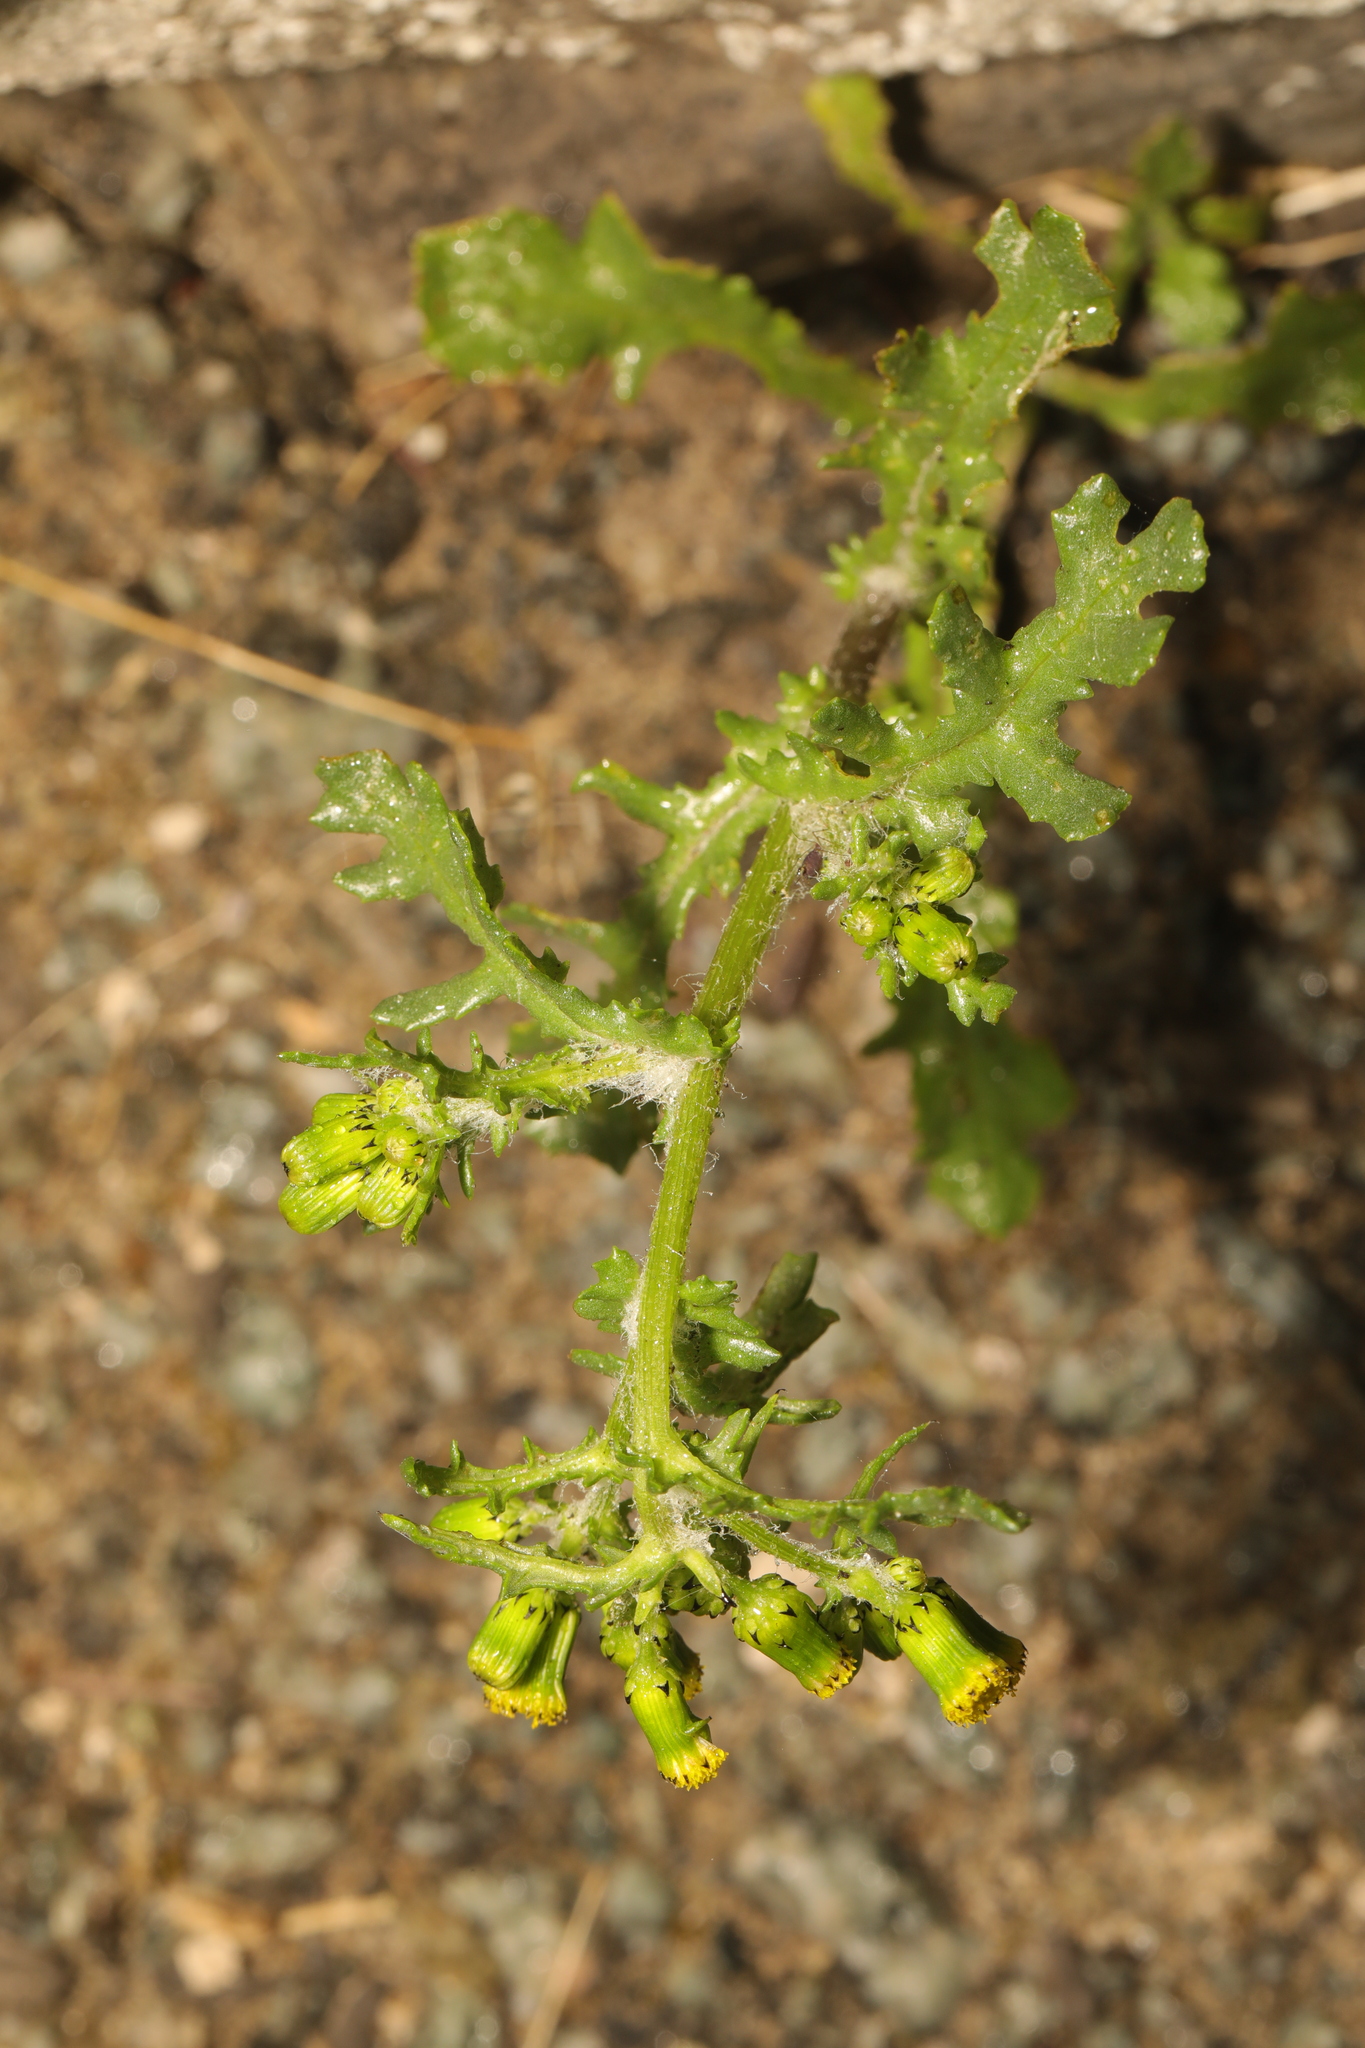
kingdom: Plantae
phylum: Tracheophyta
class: Magnoliopsida
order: Asterales
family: Asteraceae
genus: Senecio
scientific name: Senecio vulgaris
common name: Old-man-in-the-spring
